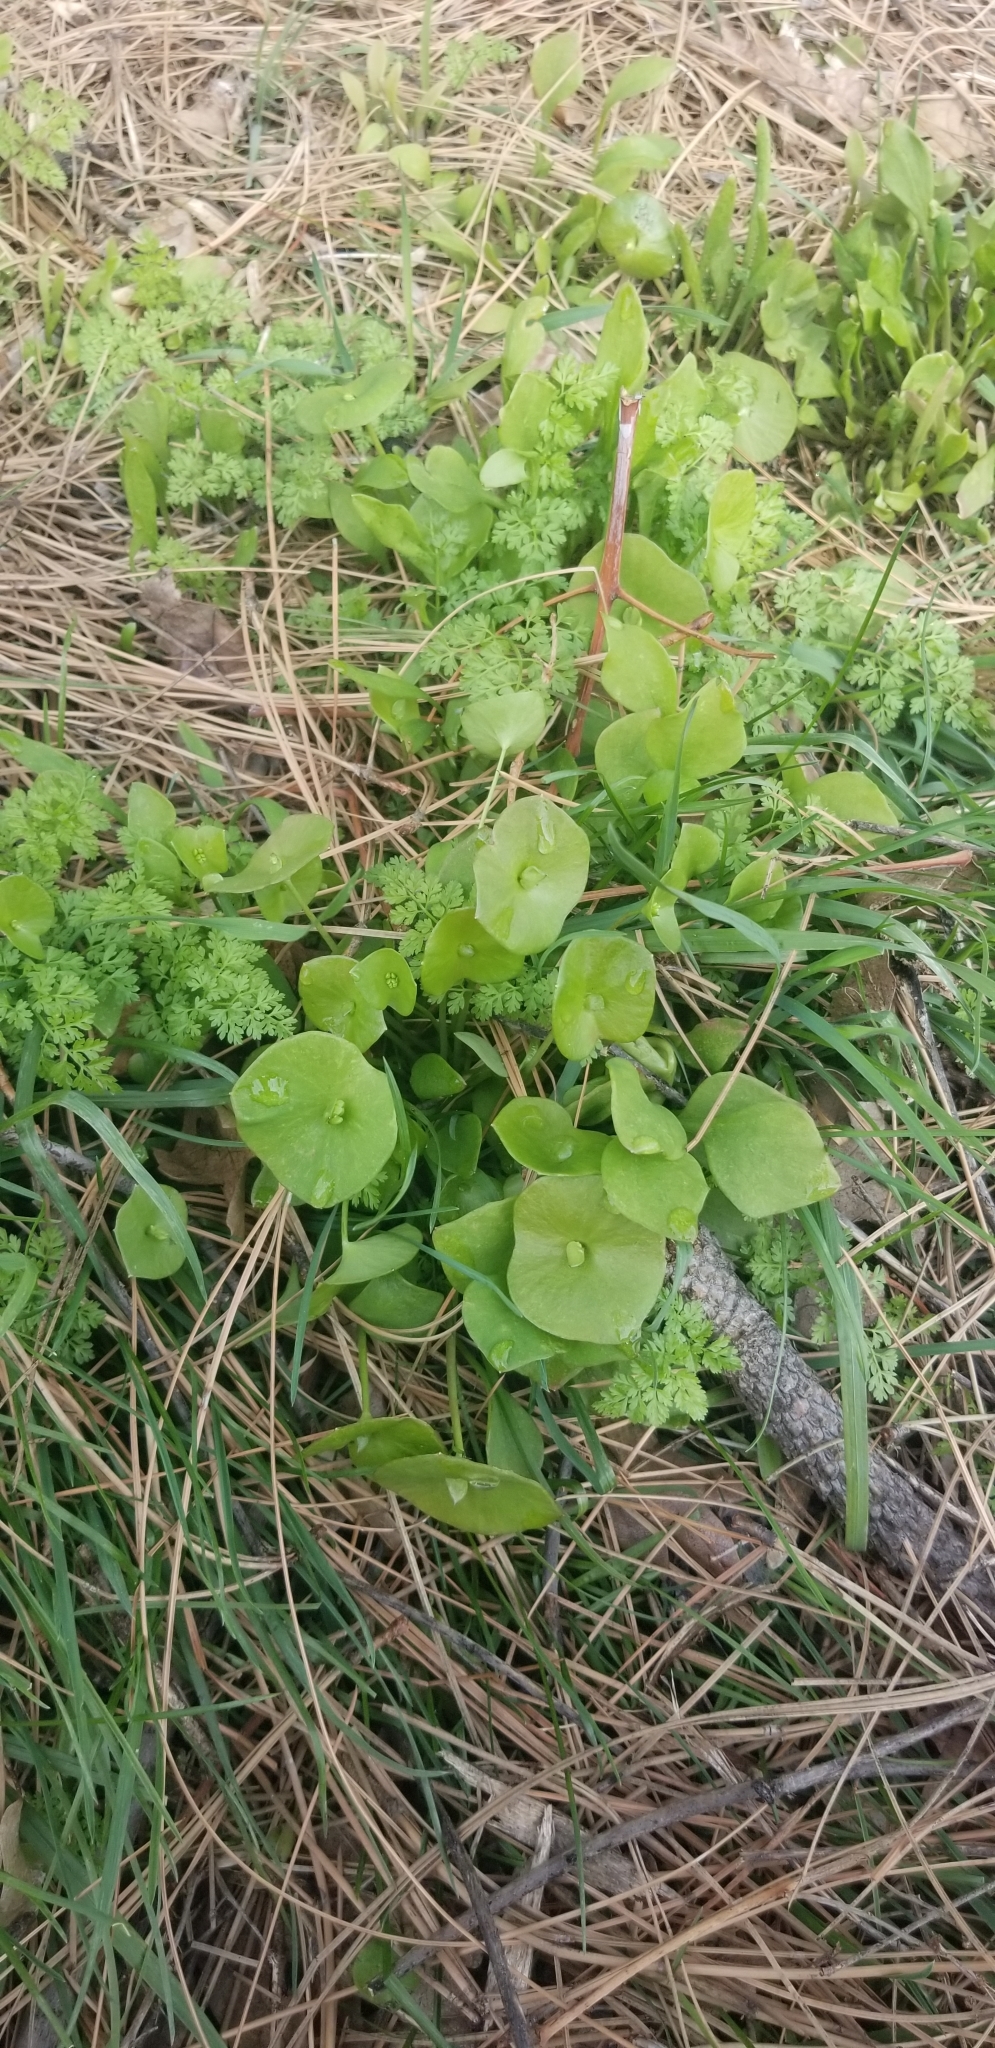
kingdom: Plantae
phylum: Tracheophyta
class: Magnoliopsida
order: Caryophyllales
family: Montiaceae
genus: Claytonia
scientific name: Claytonia perfoliata
